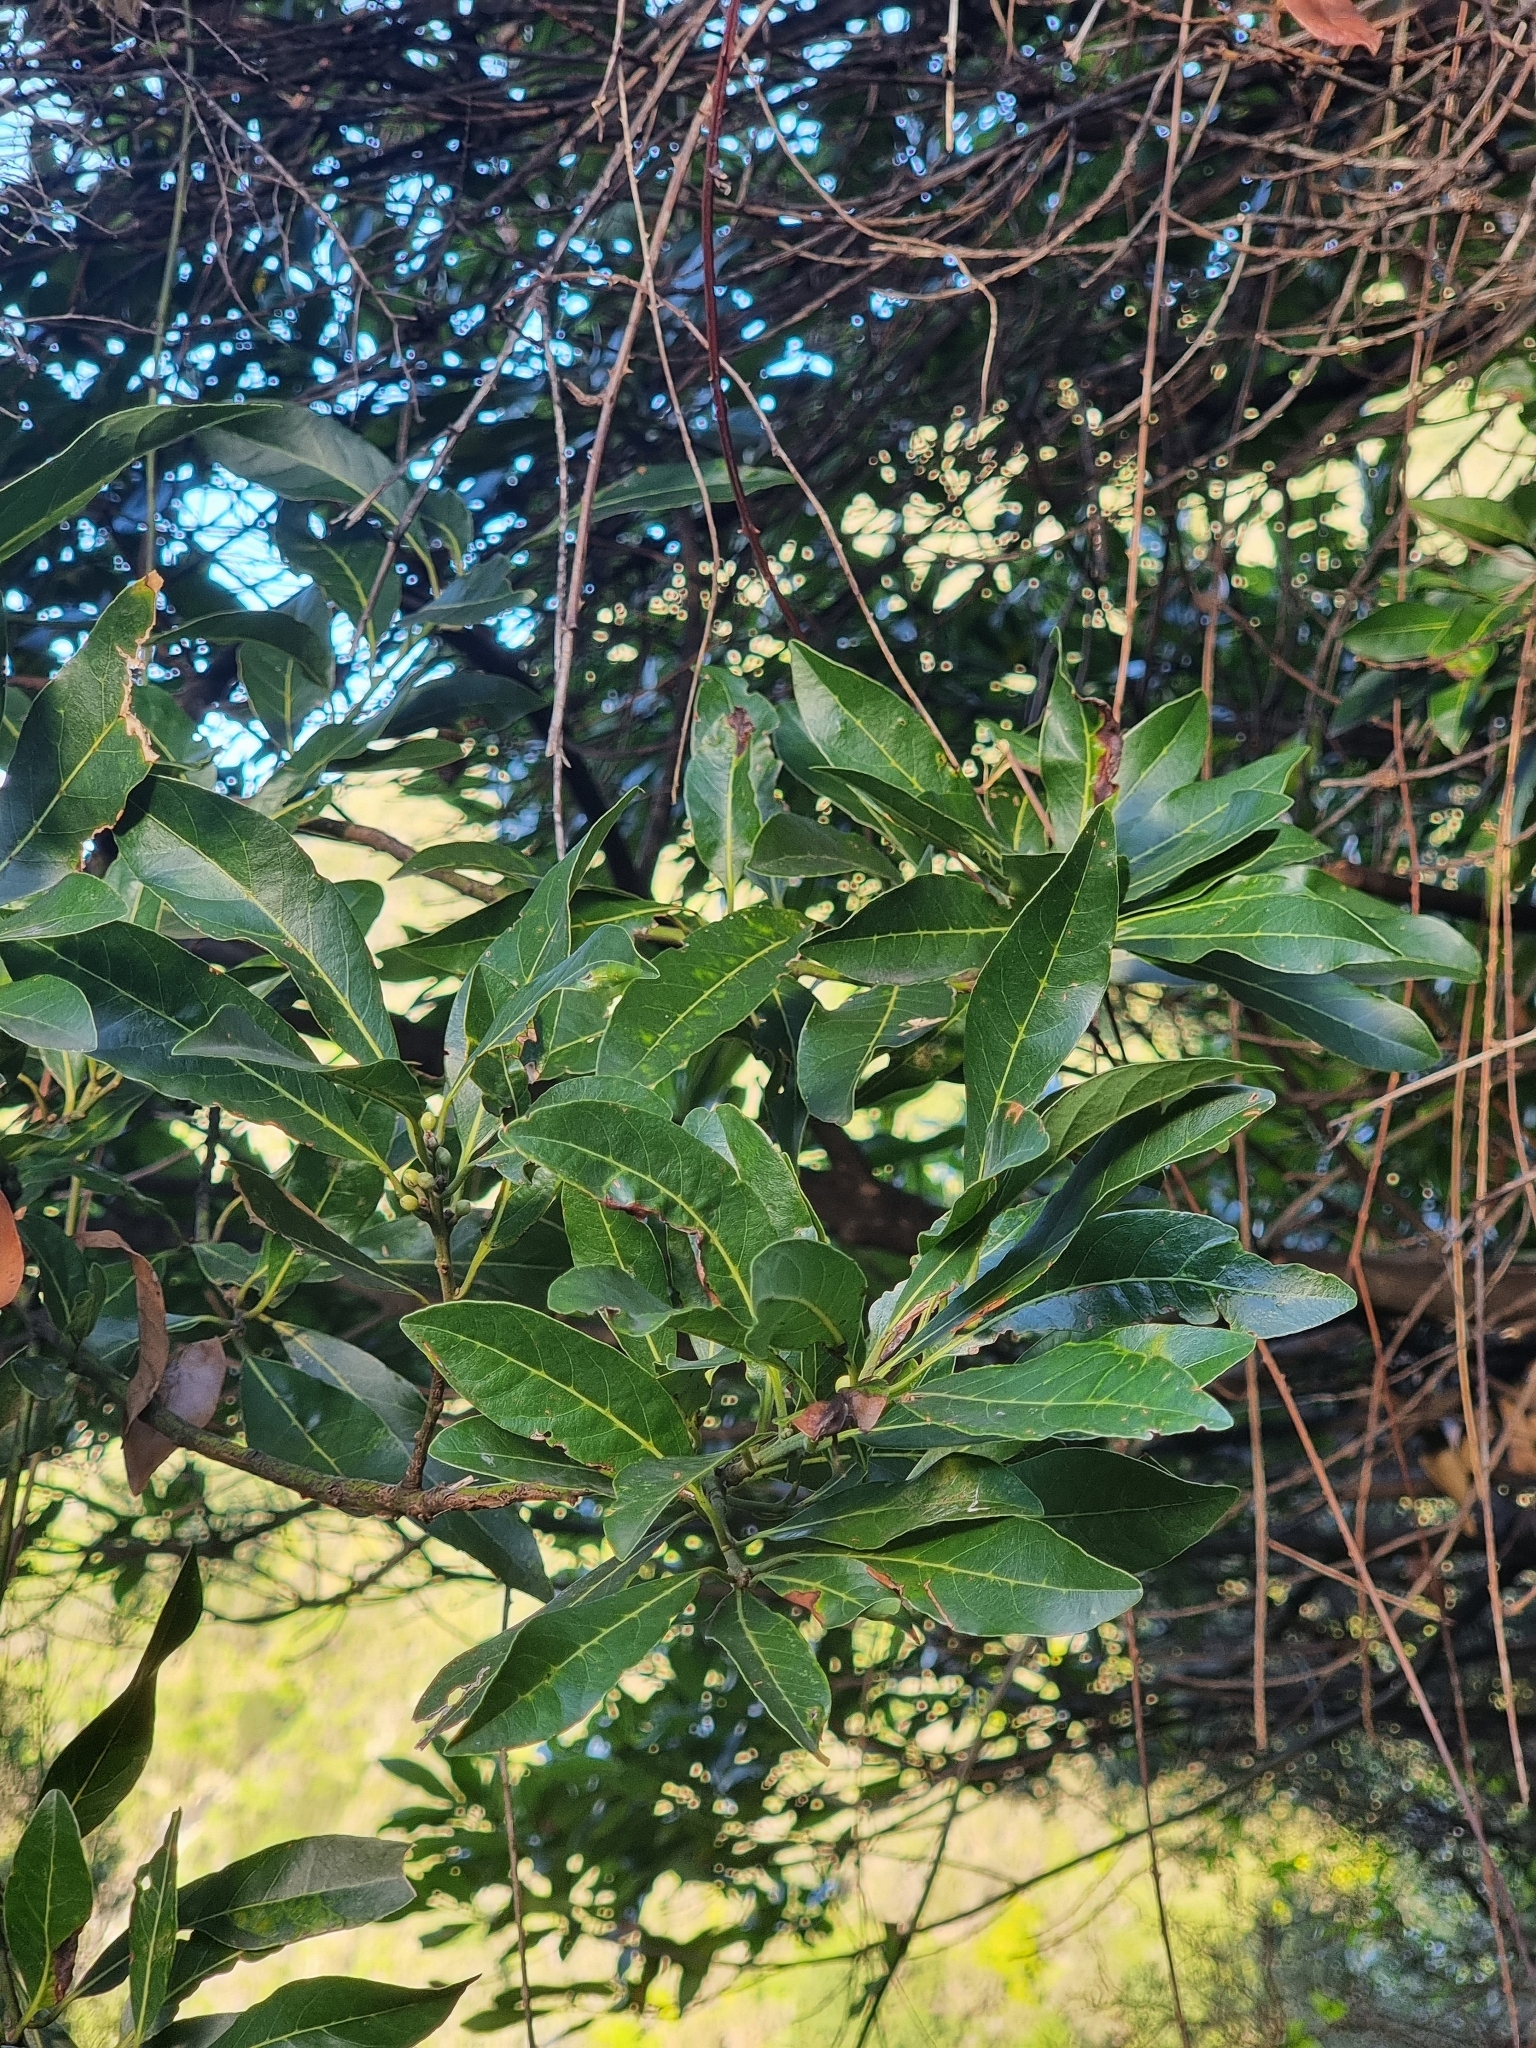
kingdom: Plantae
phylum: Tracheophyta
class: Magnoliopsida
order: Laurales
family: Lauraceae
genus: Laurus
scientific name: Laurus novocanariensis
